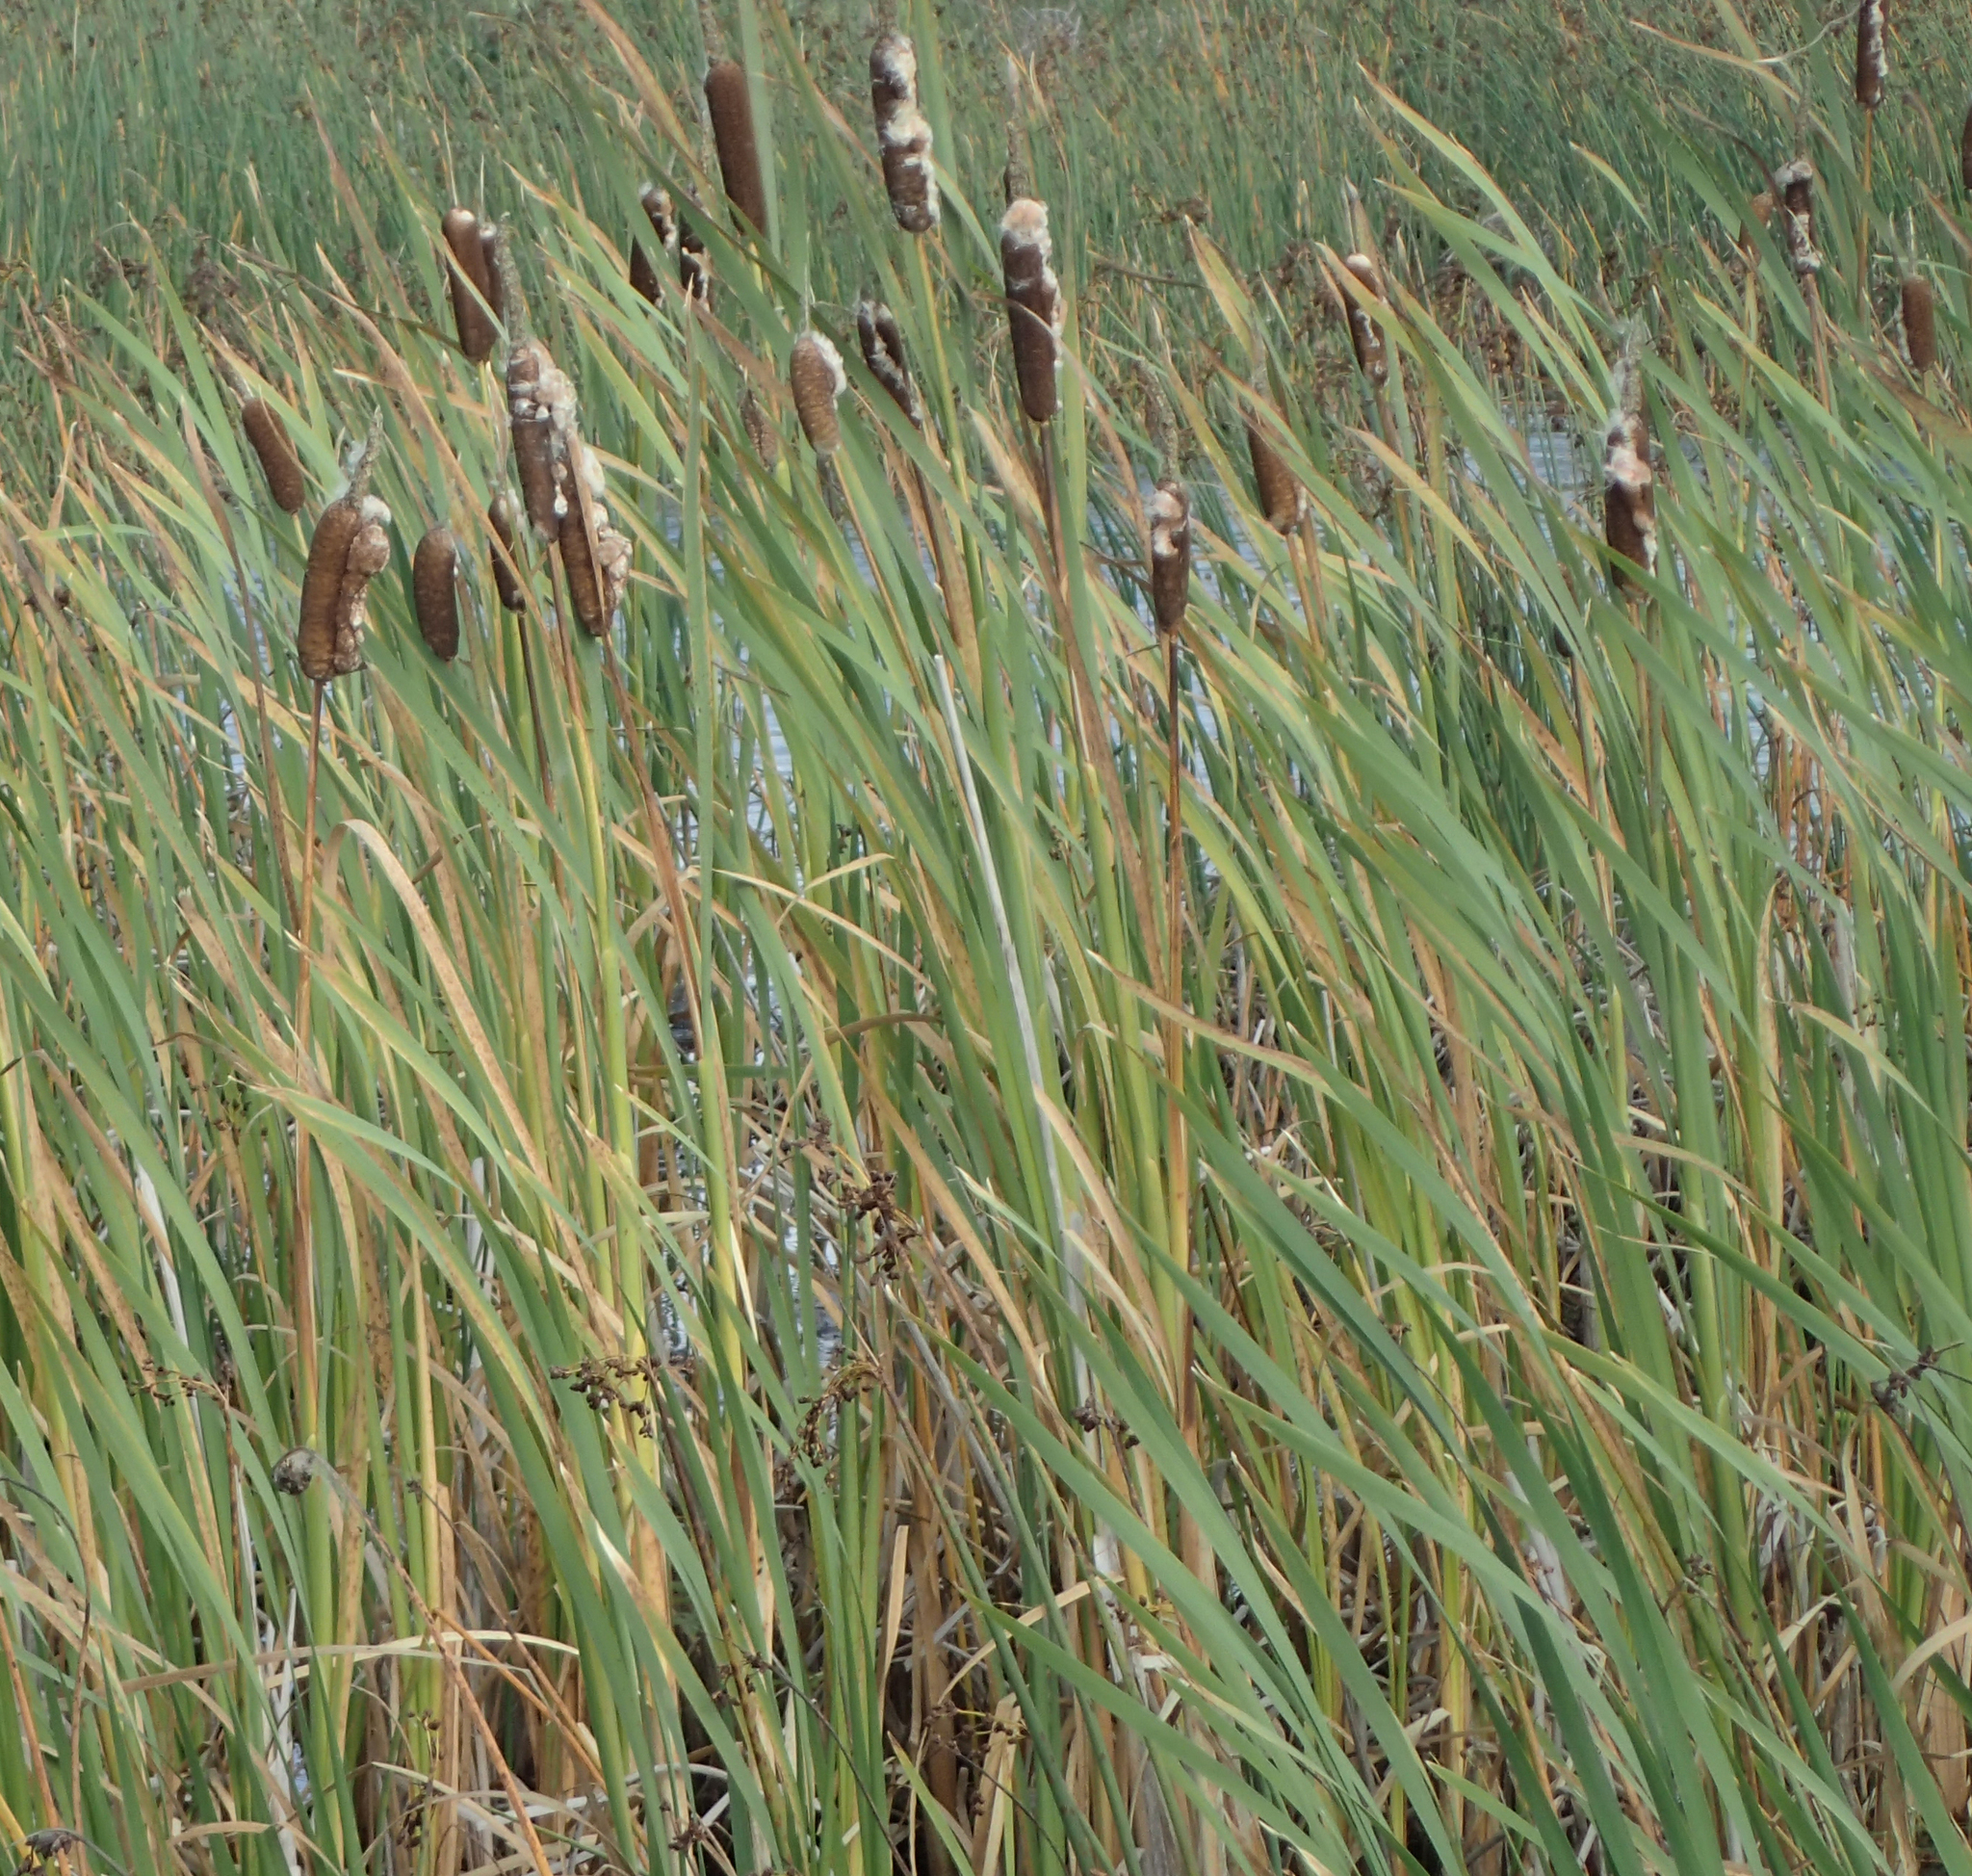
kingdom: Plantae
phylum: Tracheophyta
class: Liliopsida
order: Poales
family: Typhaceae
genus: Typha
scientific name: Typha latifolia
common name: Broadleaf cattail
